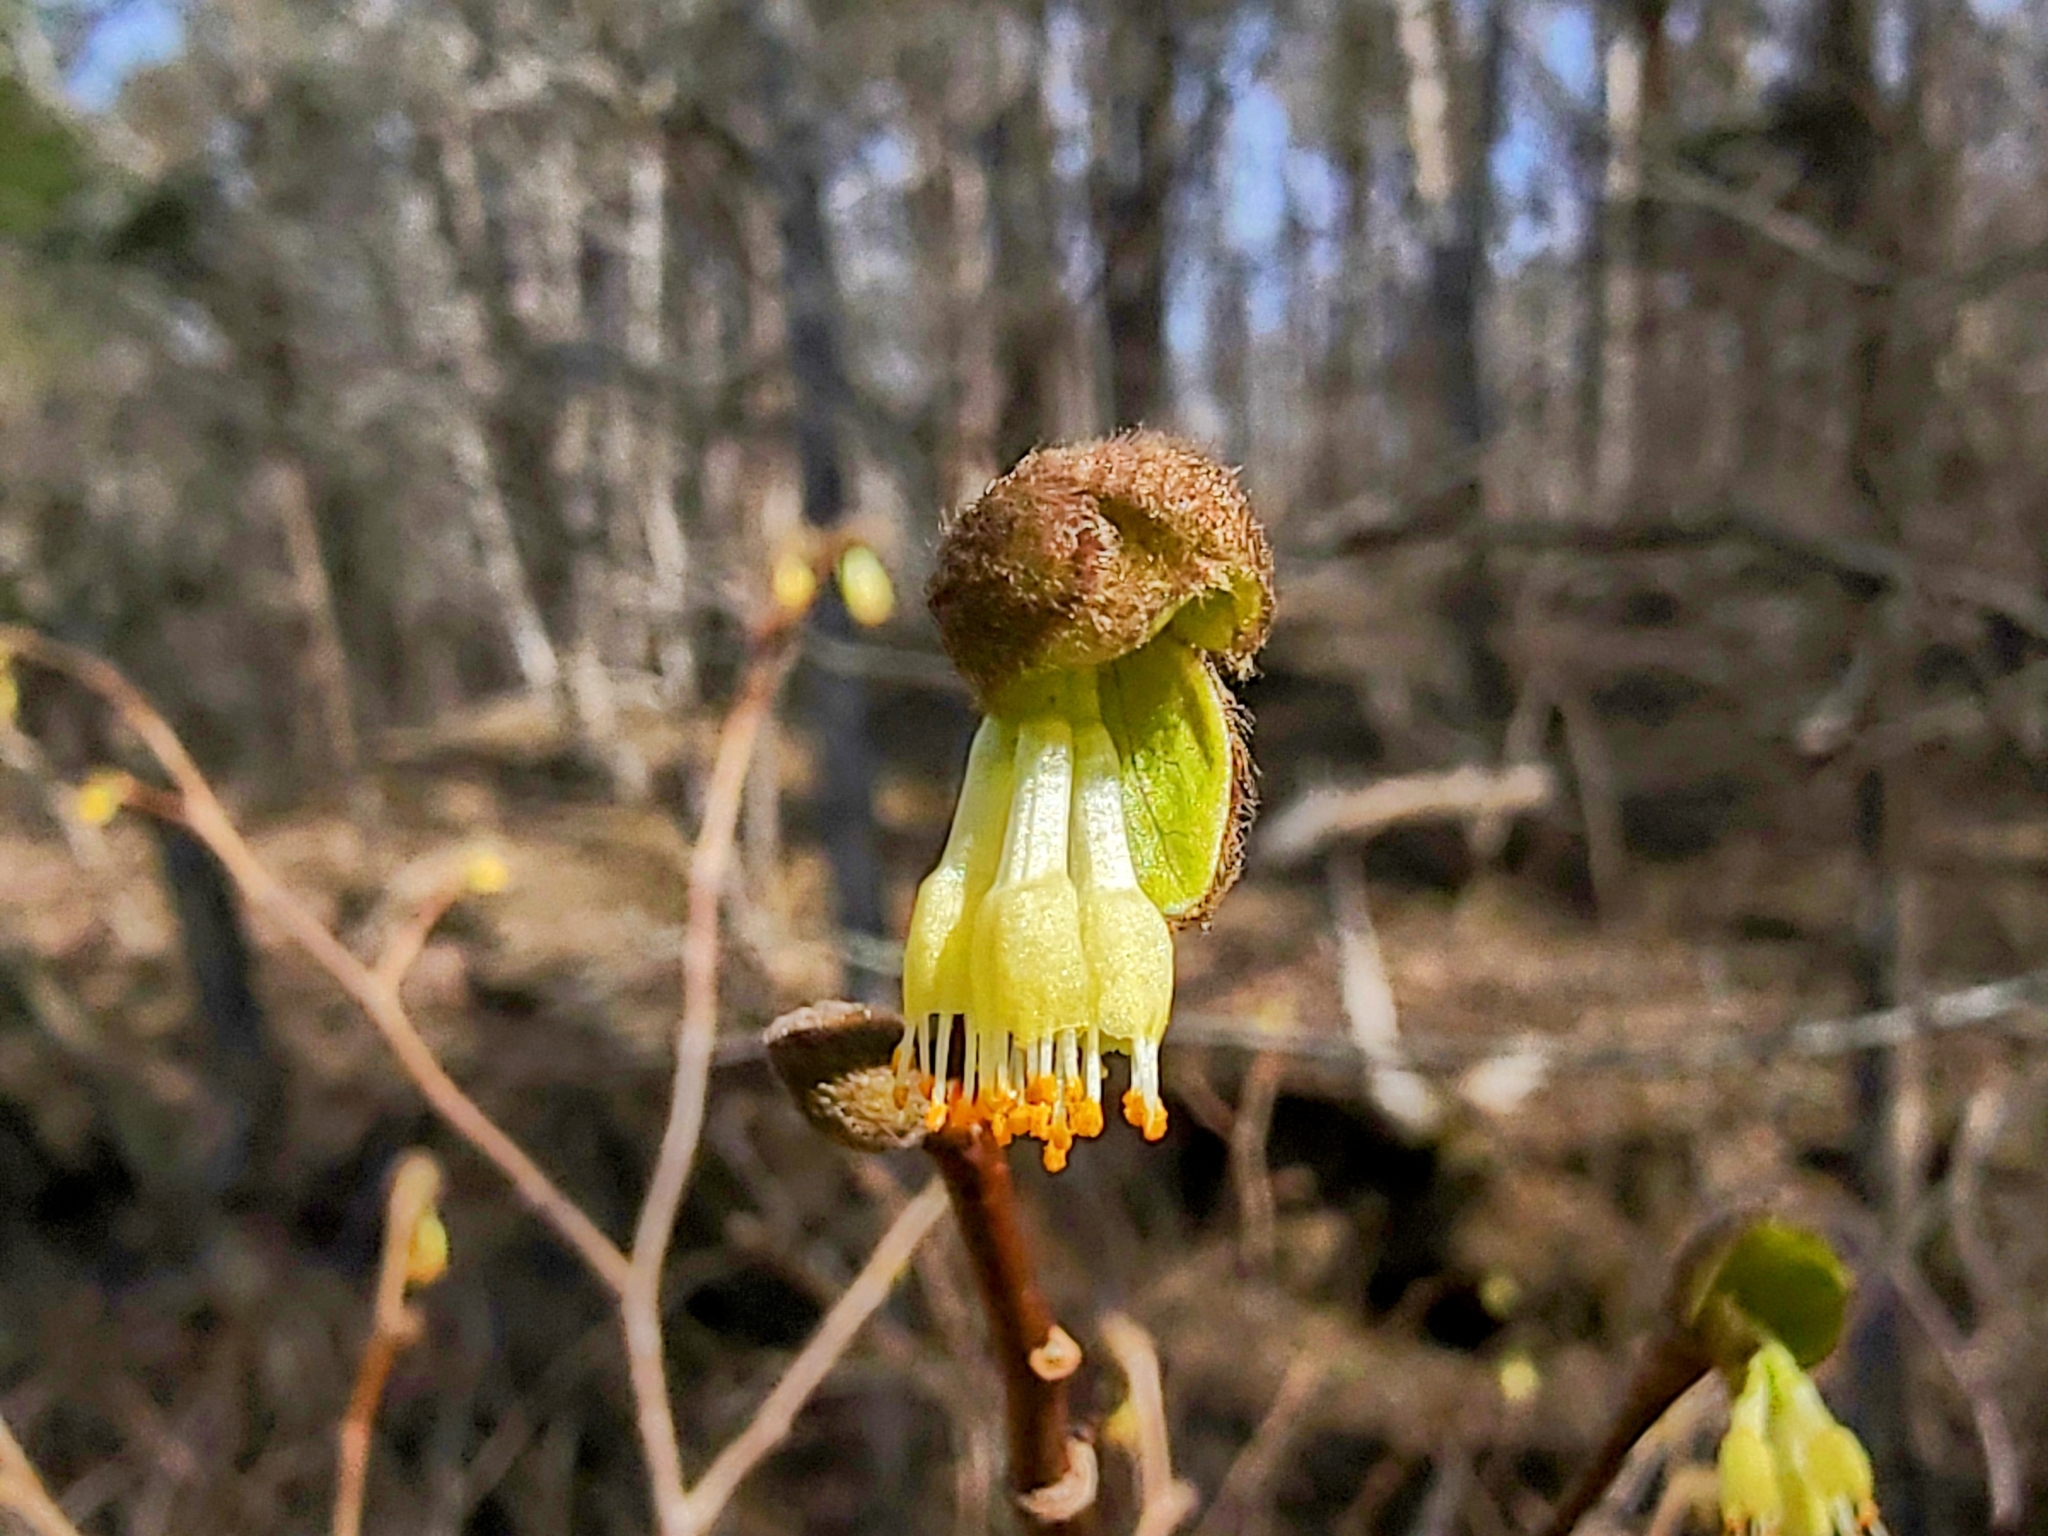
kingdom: Plantae
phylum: Tracheophyta
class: Magnoliopsida
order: Malvales
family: Thymelaeaceae
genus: Dirca
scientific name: Dirca palustris
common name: Leatherwood
